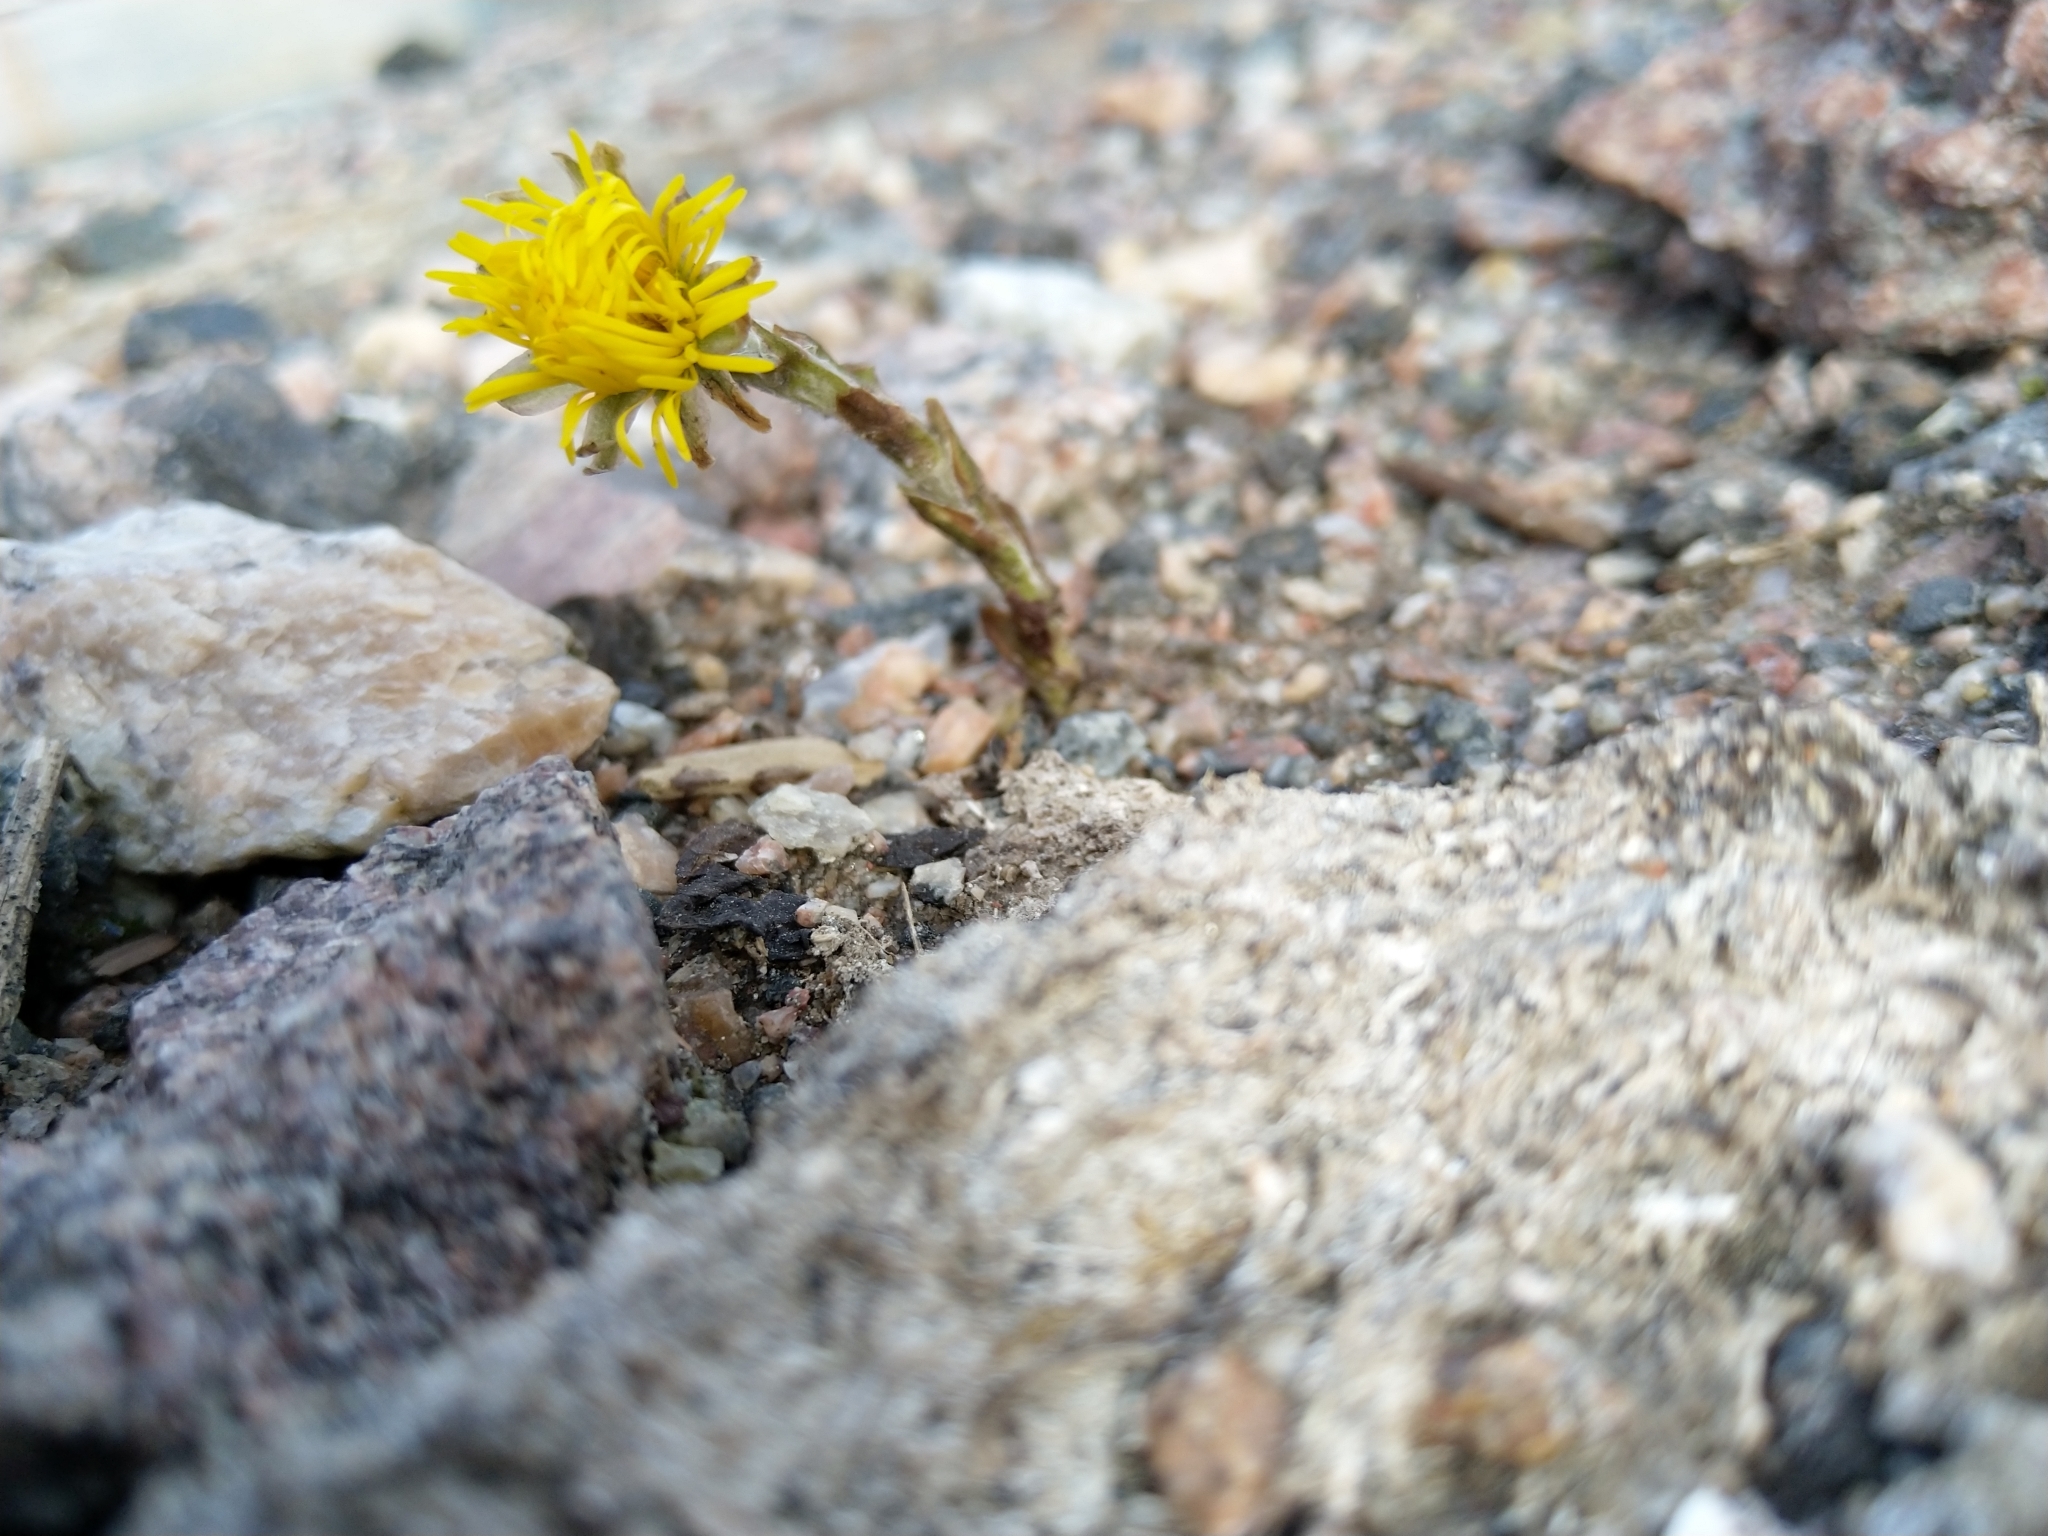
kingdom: Plantae
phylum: Tracheophyta
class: Magnoliopsida
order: Asterales
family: Asteraceae
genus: Tussilago
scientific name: Tussilago farfara
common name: Coltsfoot
